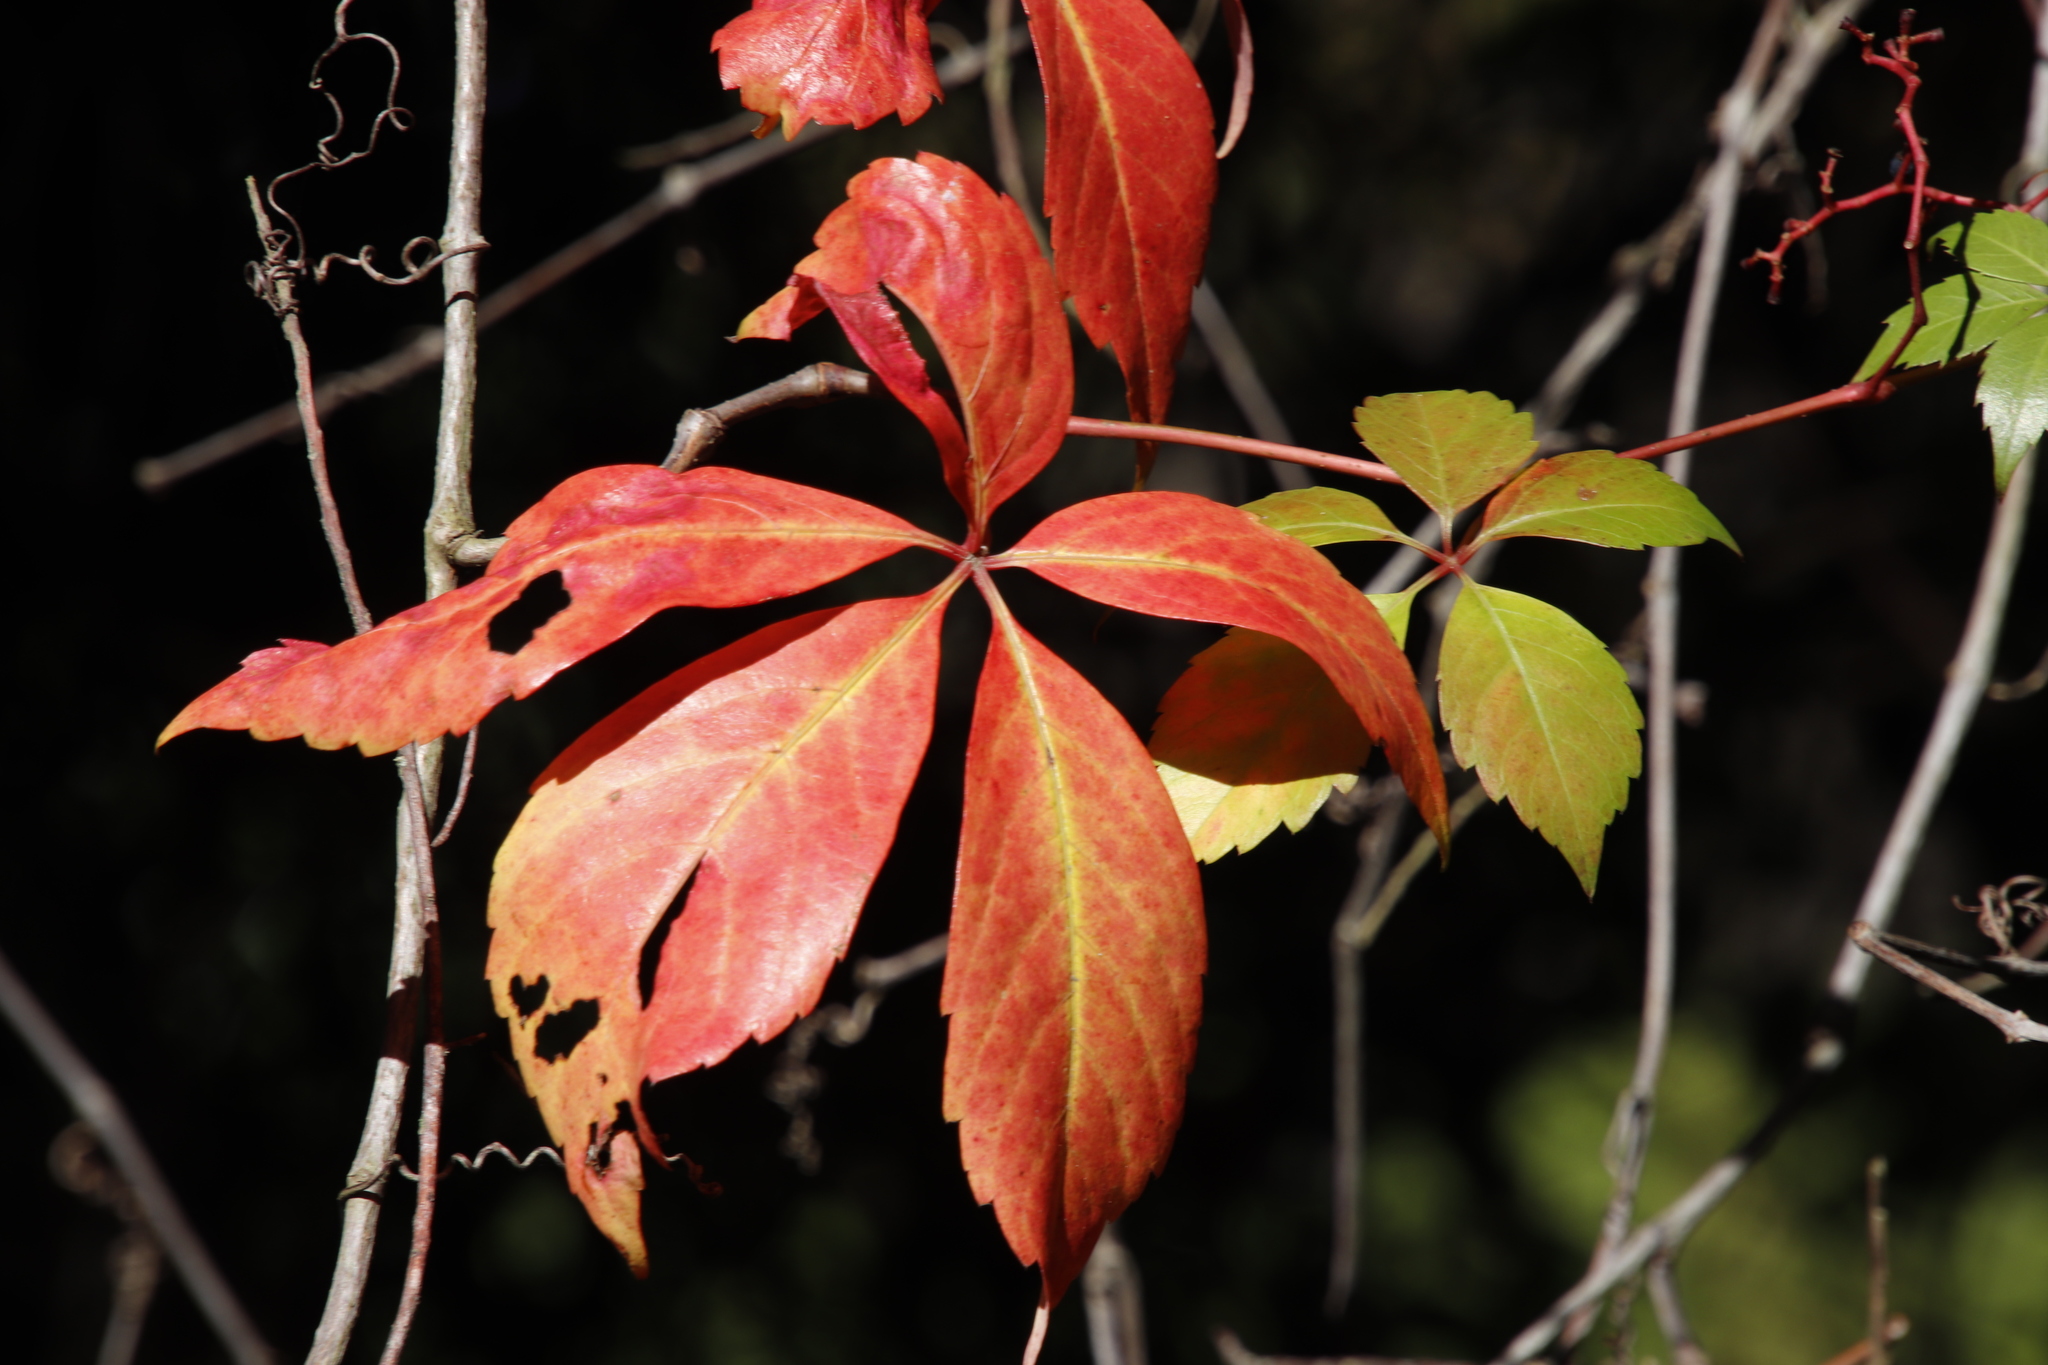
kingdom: Plantae
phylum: Tracheophyta
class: Magnoliopsida
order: Vitales
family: Vitaceae
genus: Parthenocissus
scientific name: Parthenocissus quinquefolia
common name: Virginia-creeper
